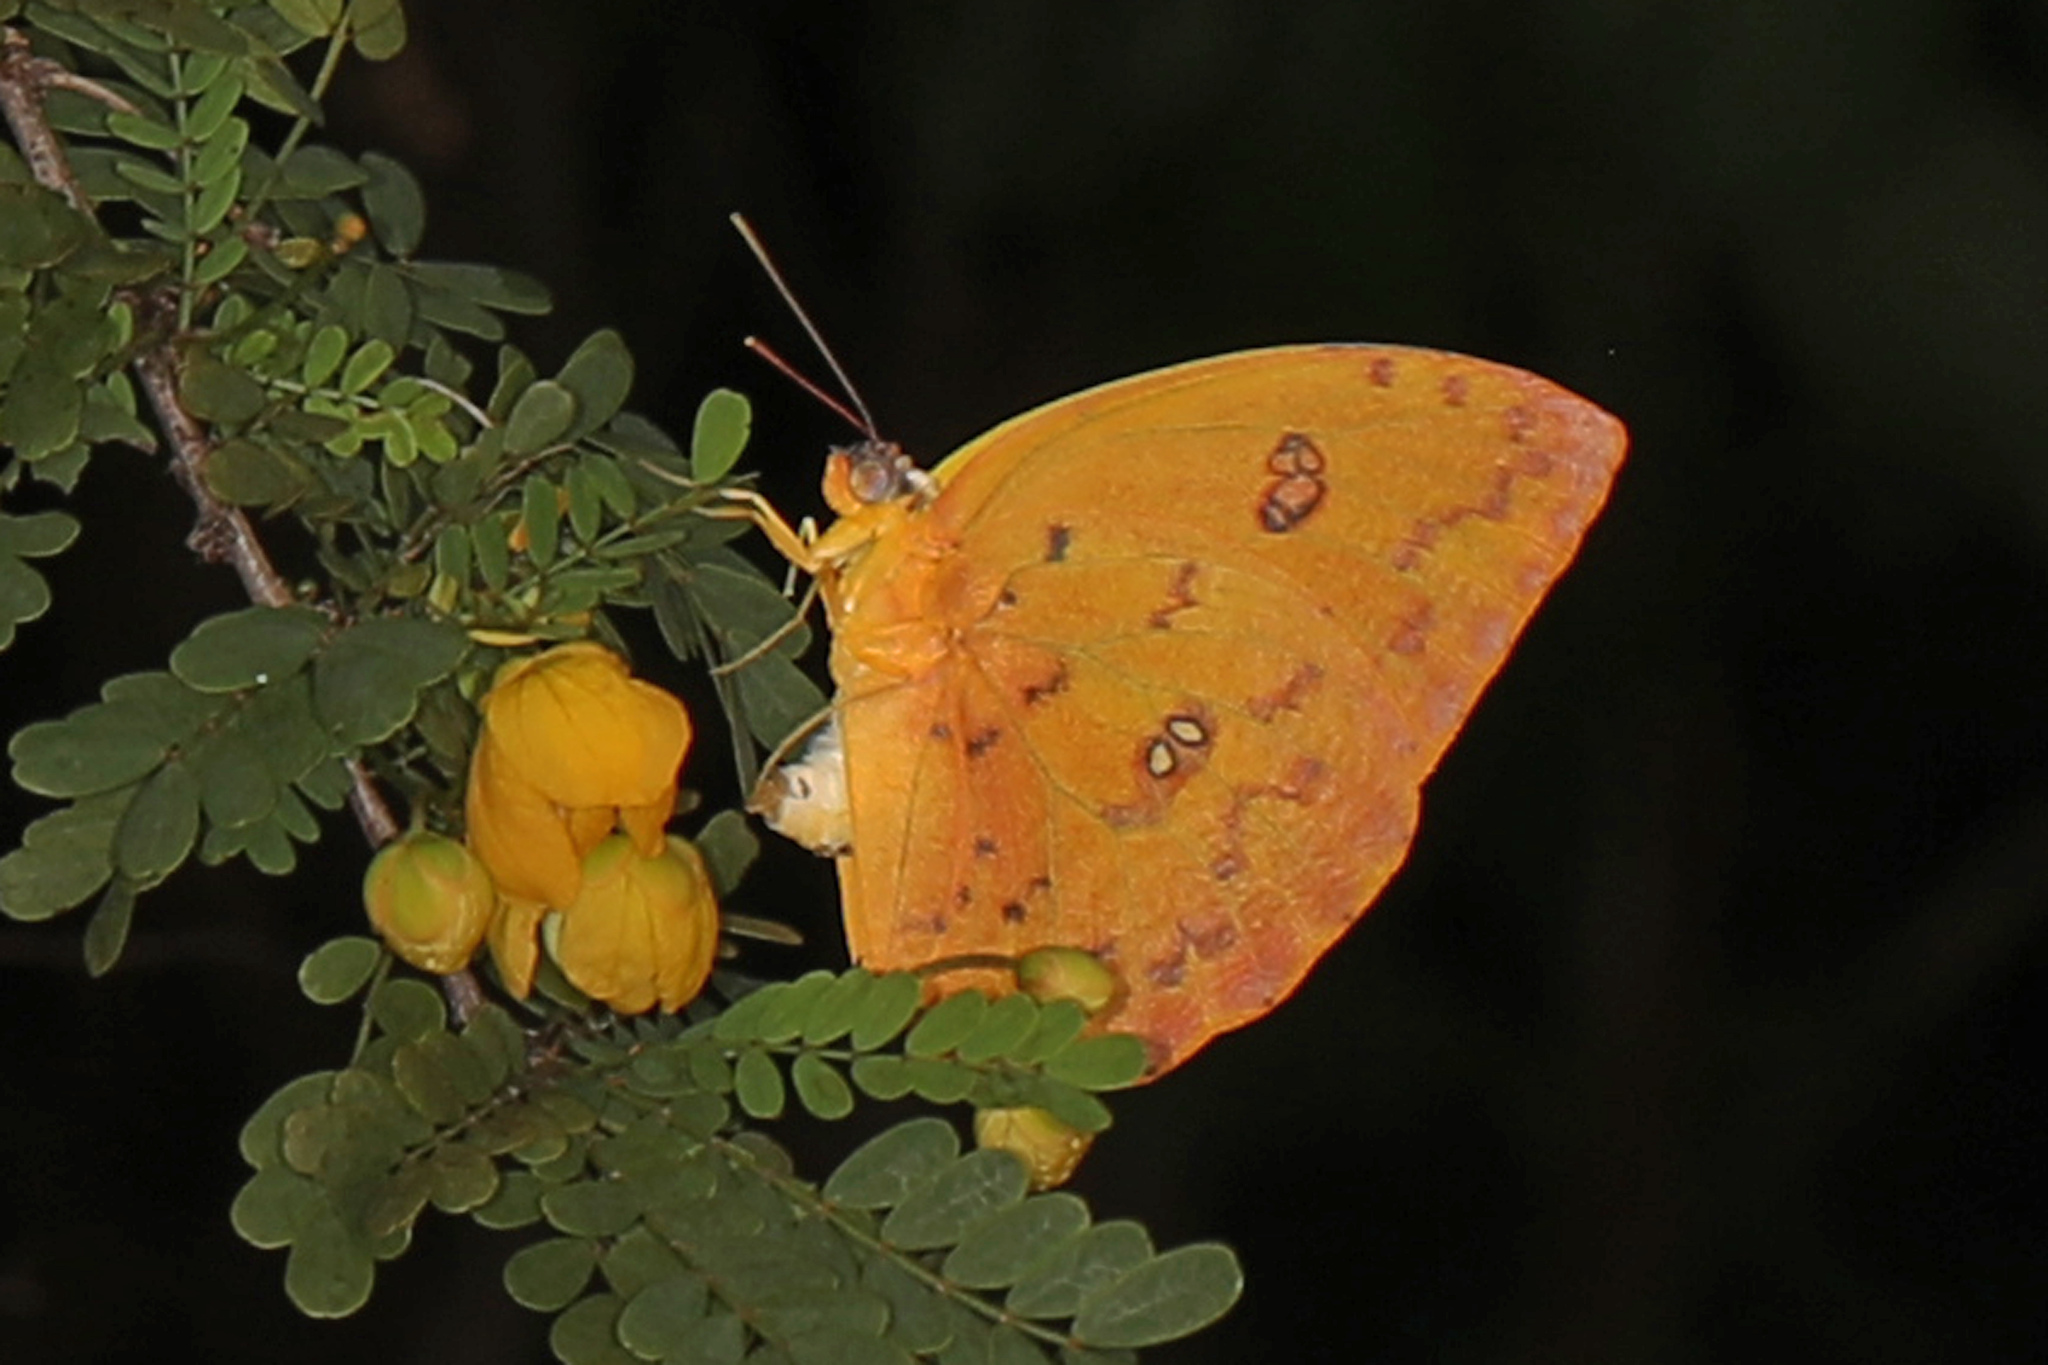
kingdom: Animalia
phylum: Arthropoda
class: Insecta
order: Lepidoptera
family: Pieridae
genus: Phoebis
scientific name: Phoebis philea
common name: Orange-barred giant sulphur
